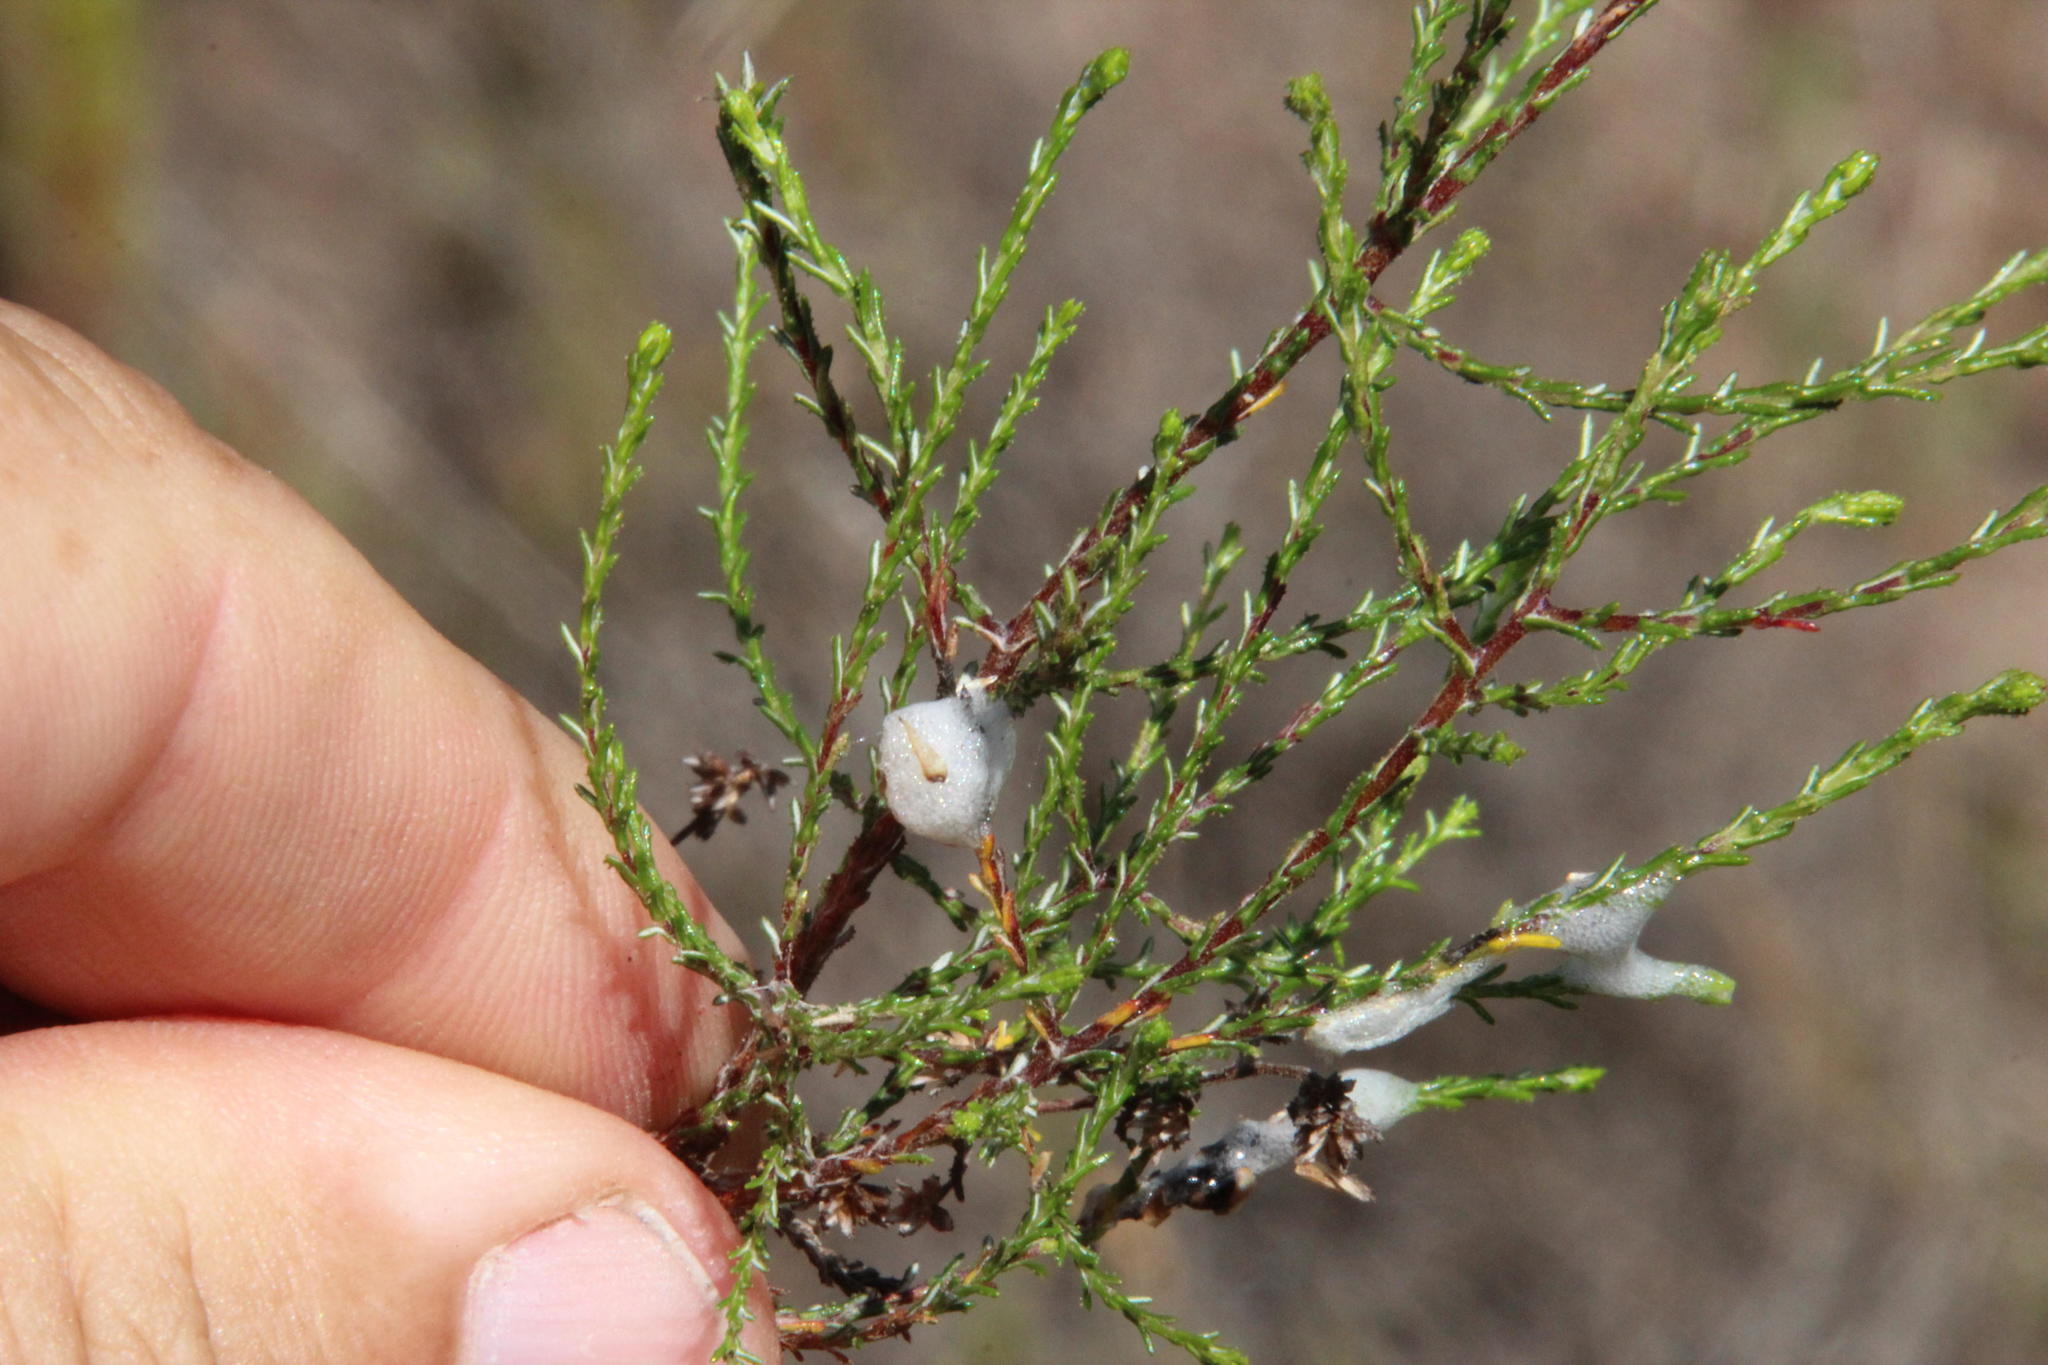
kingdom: Plantae
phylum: Tracheophyta
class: Magnoliopsida
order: Asterales
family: Asteraceae
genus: Myrovernix
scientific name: Myrovernix scaber
